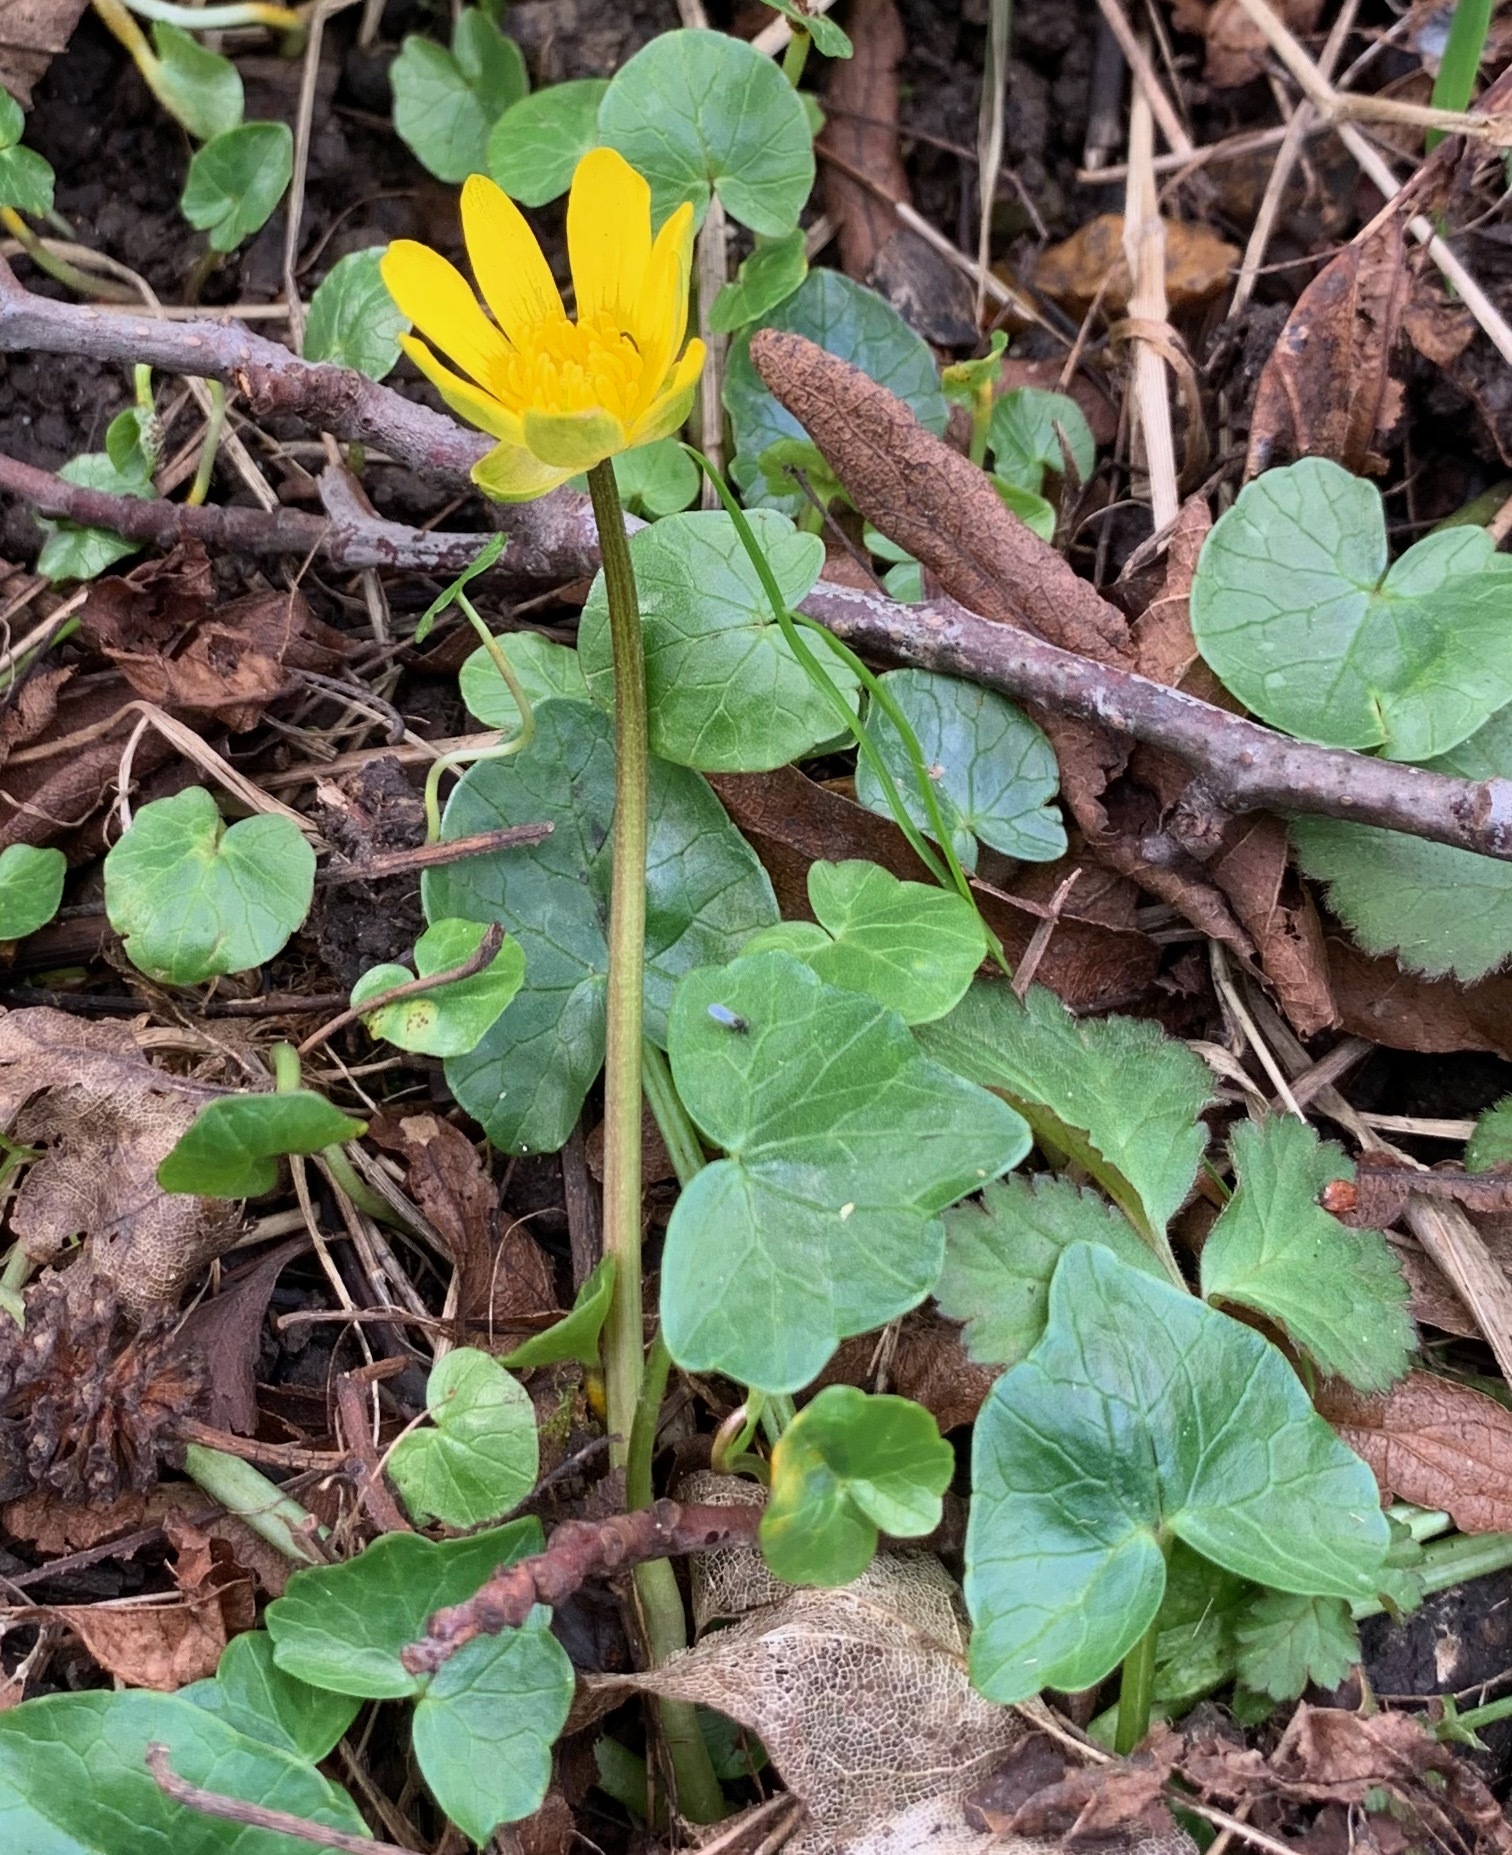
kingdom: Plantae
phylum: Tracheophyta
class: Magnoliopsida
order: Ranunculales
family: Ranunculaceae
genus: Ficaria
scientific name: Ficaria verna
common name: Lesser celandine
